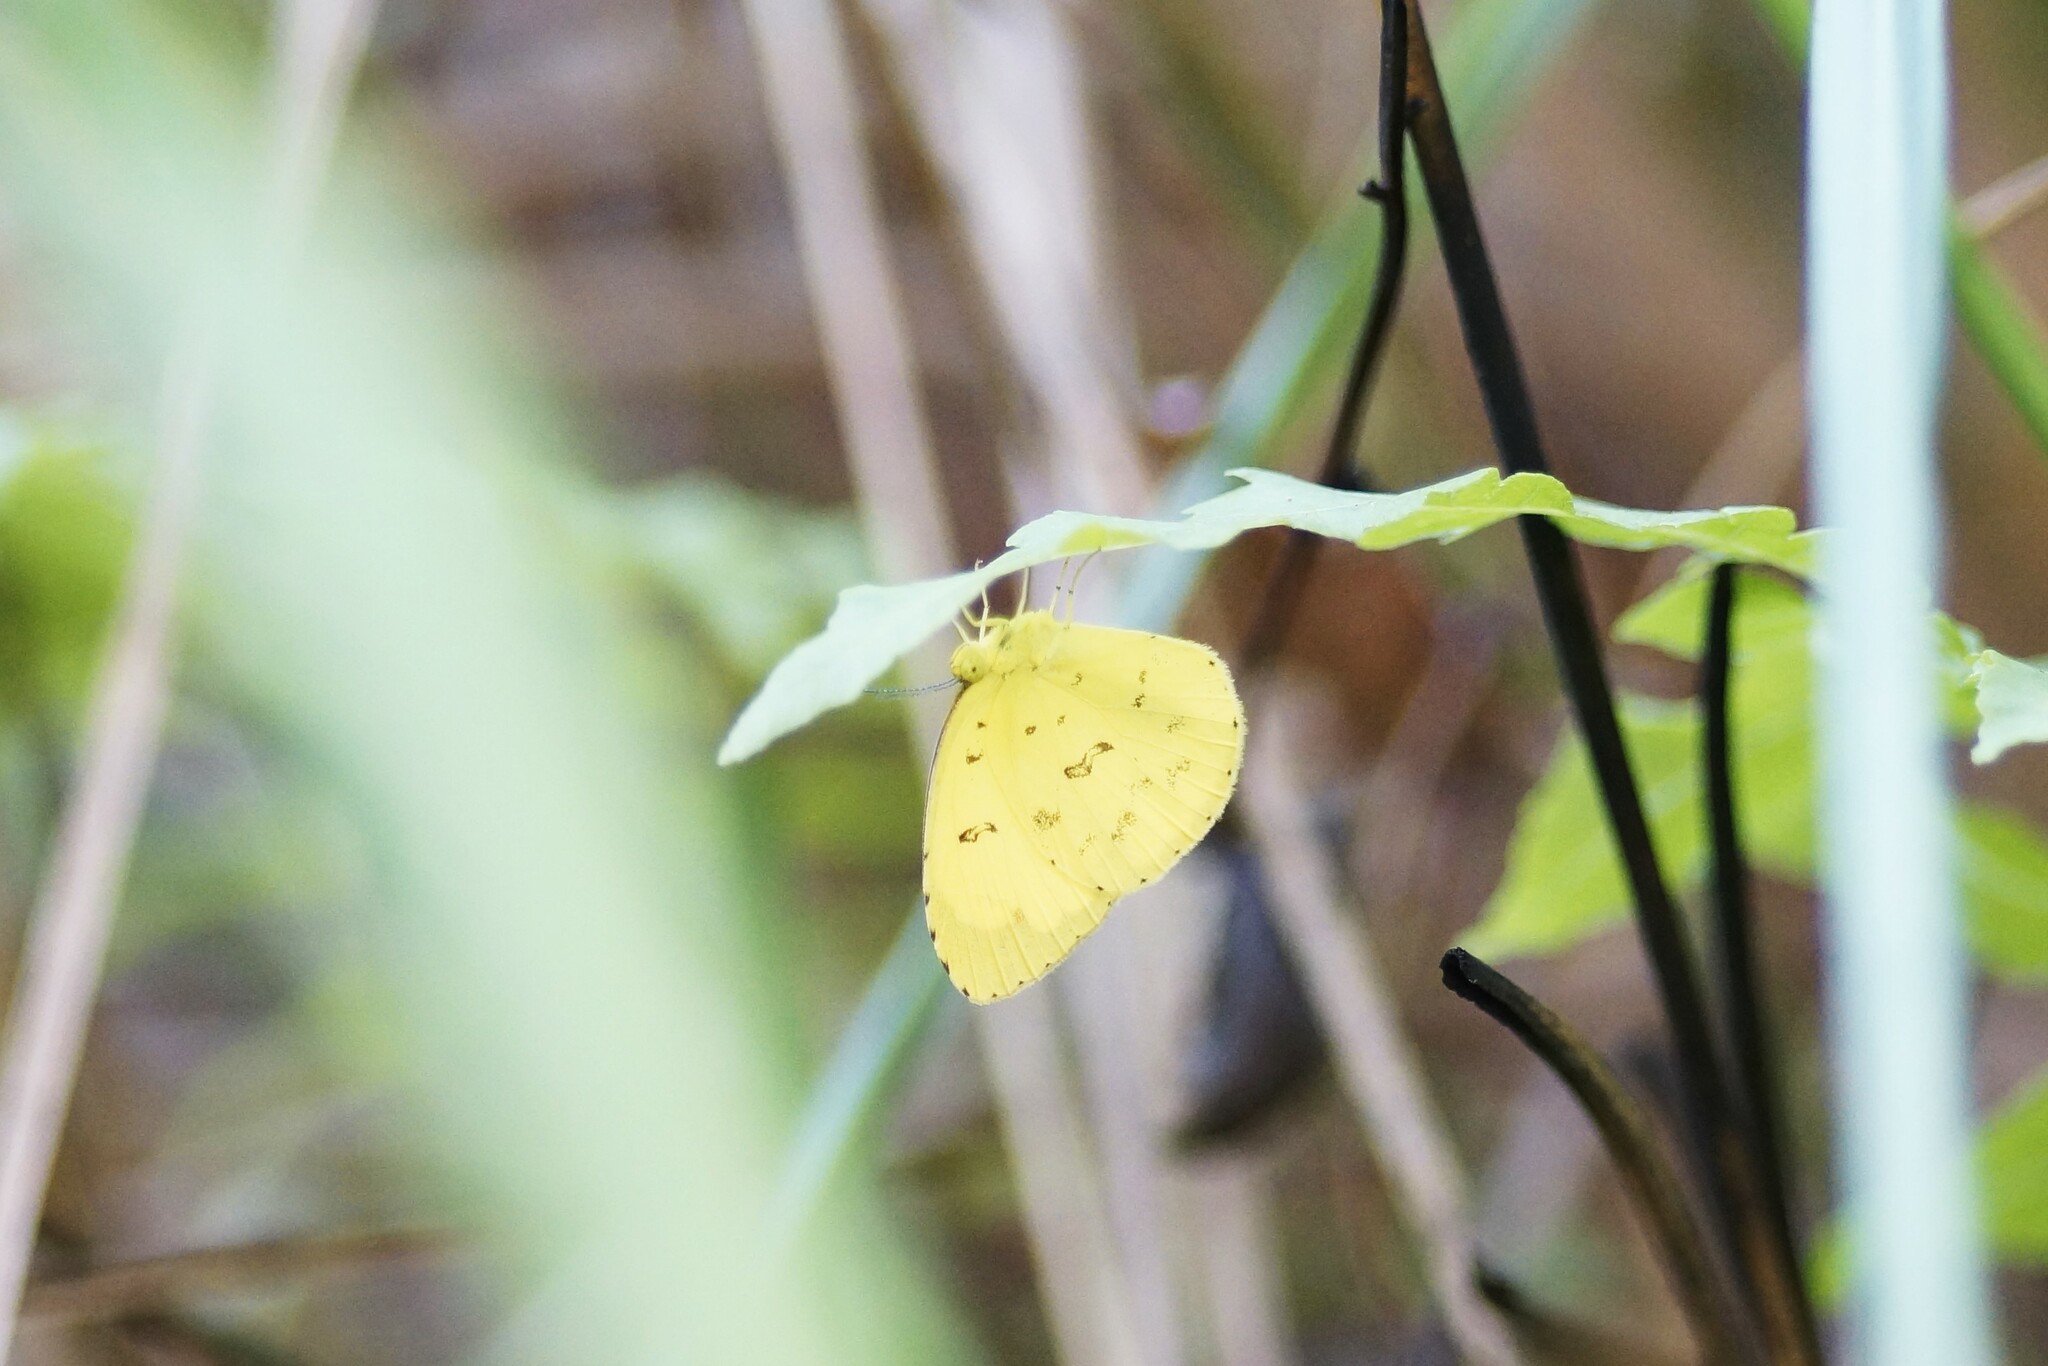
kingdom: Animalia
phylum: Arthropoda
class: Insecta
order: Lepidoptera
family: Pieridae
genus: Eurema
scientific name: Eurema hecabe
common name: Pale grass yellow
